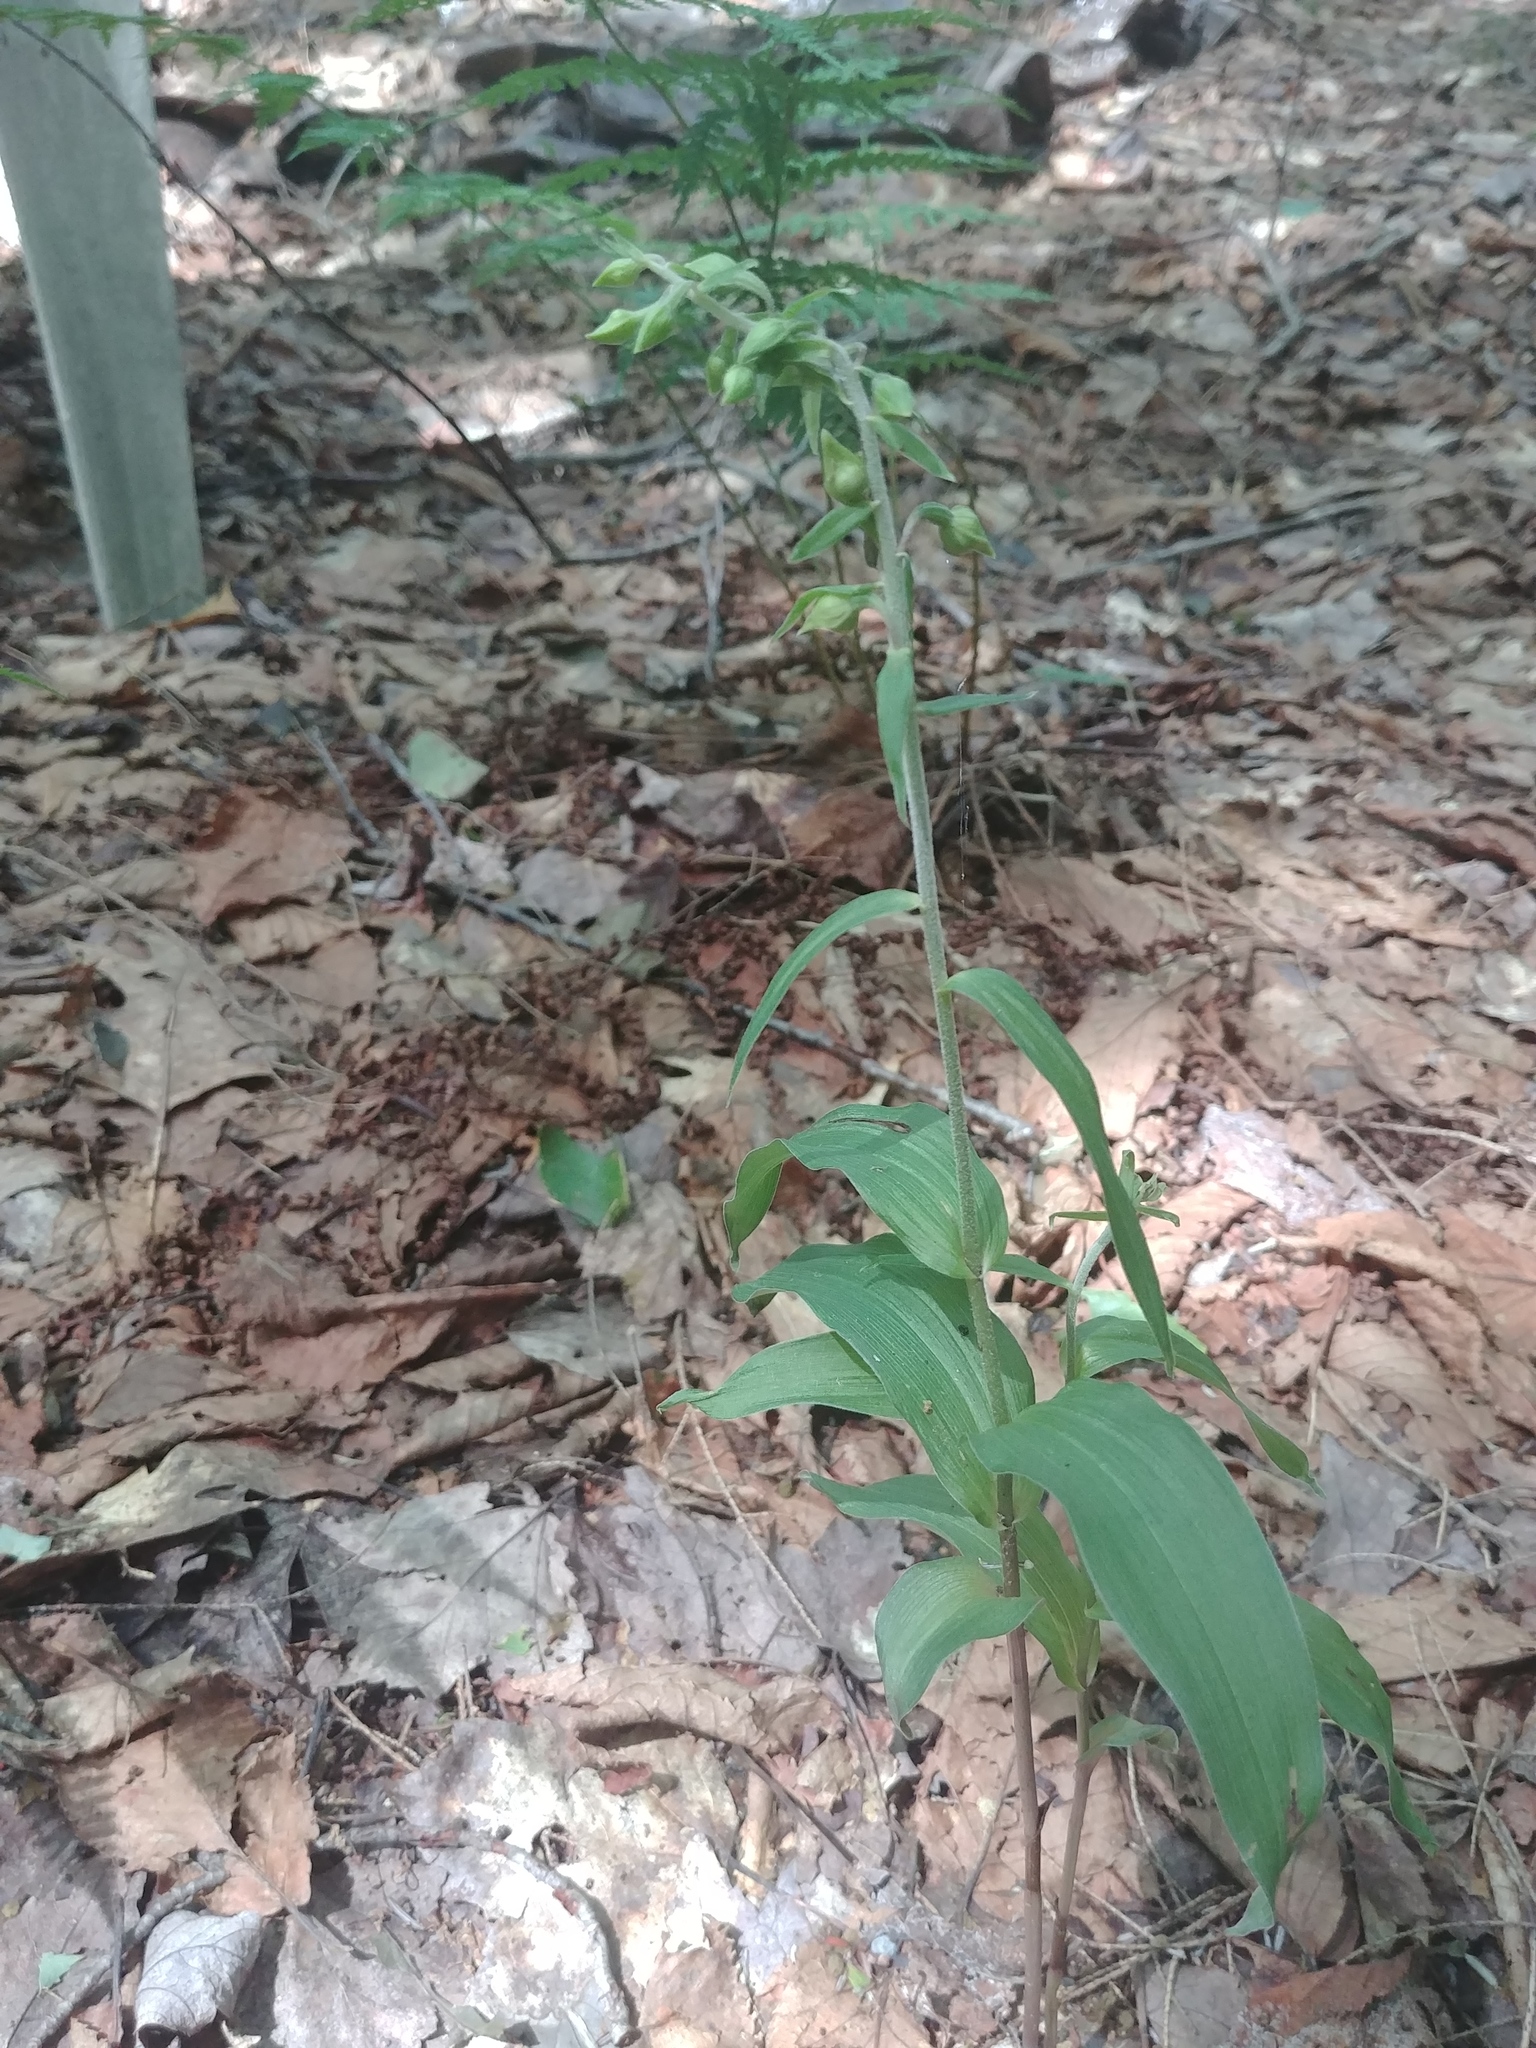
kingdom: Plantae
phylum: Tracheophyta
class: Liliopsida
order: Asparagales
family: Orchidaceae
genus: Epipactis
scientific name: Epipactis helleborine
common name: Broad-leaved helleborine
